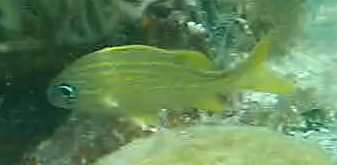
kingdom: Animalia
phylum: Chordata
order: Perciformes
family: Haemulidae
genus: Haemulon
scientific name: Haemulon flavolineatum
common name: French grunt
